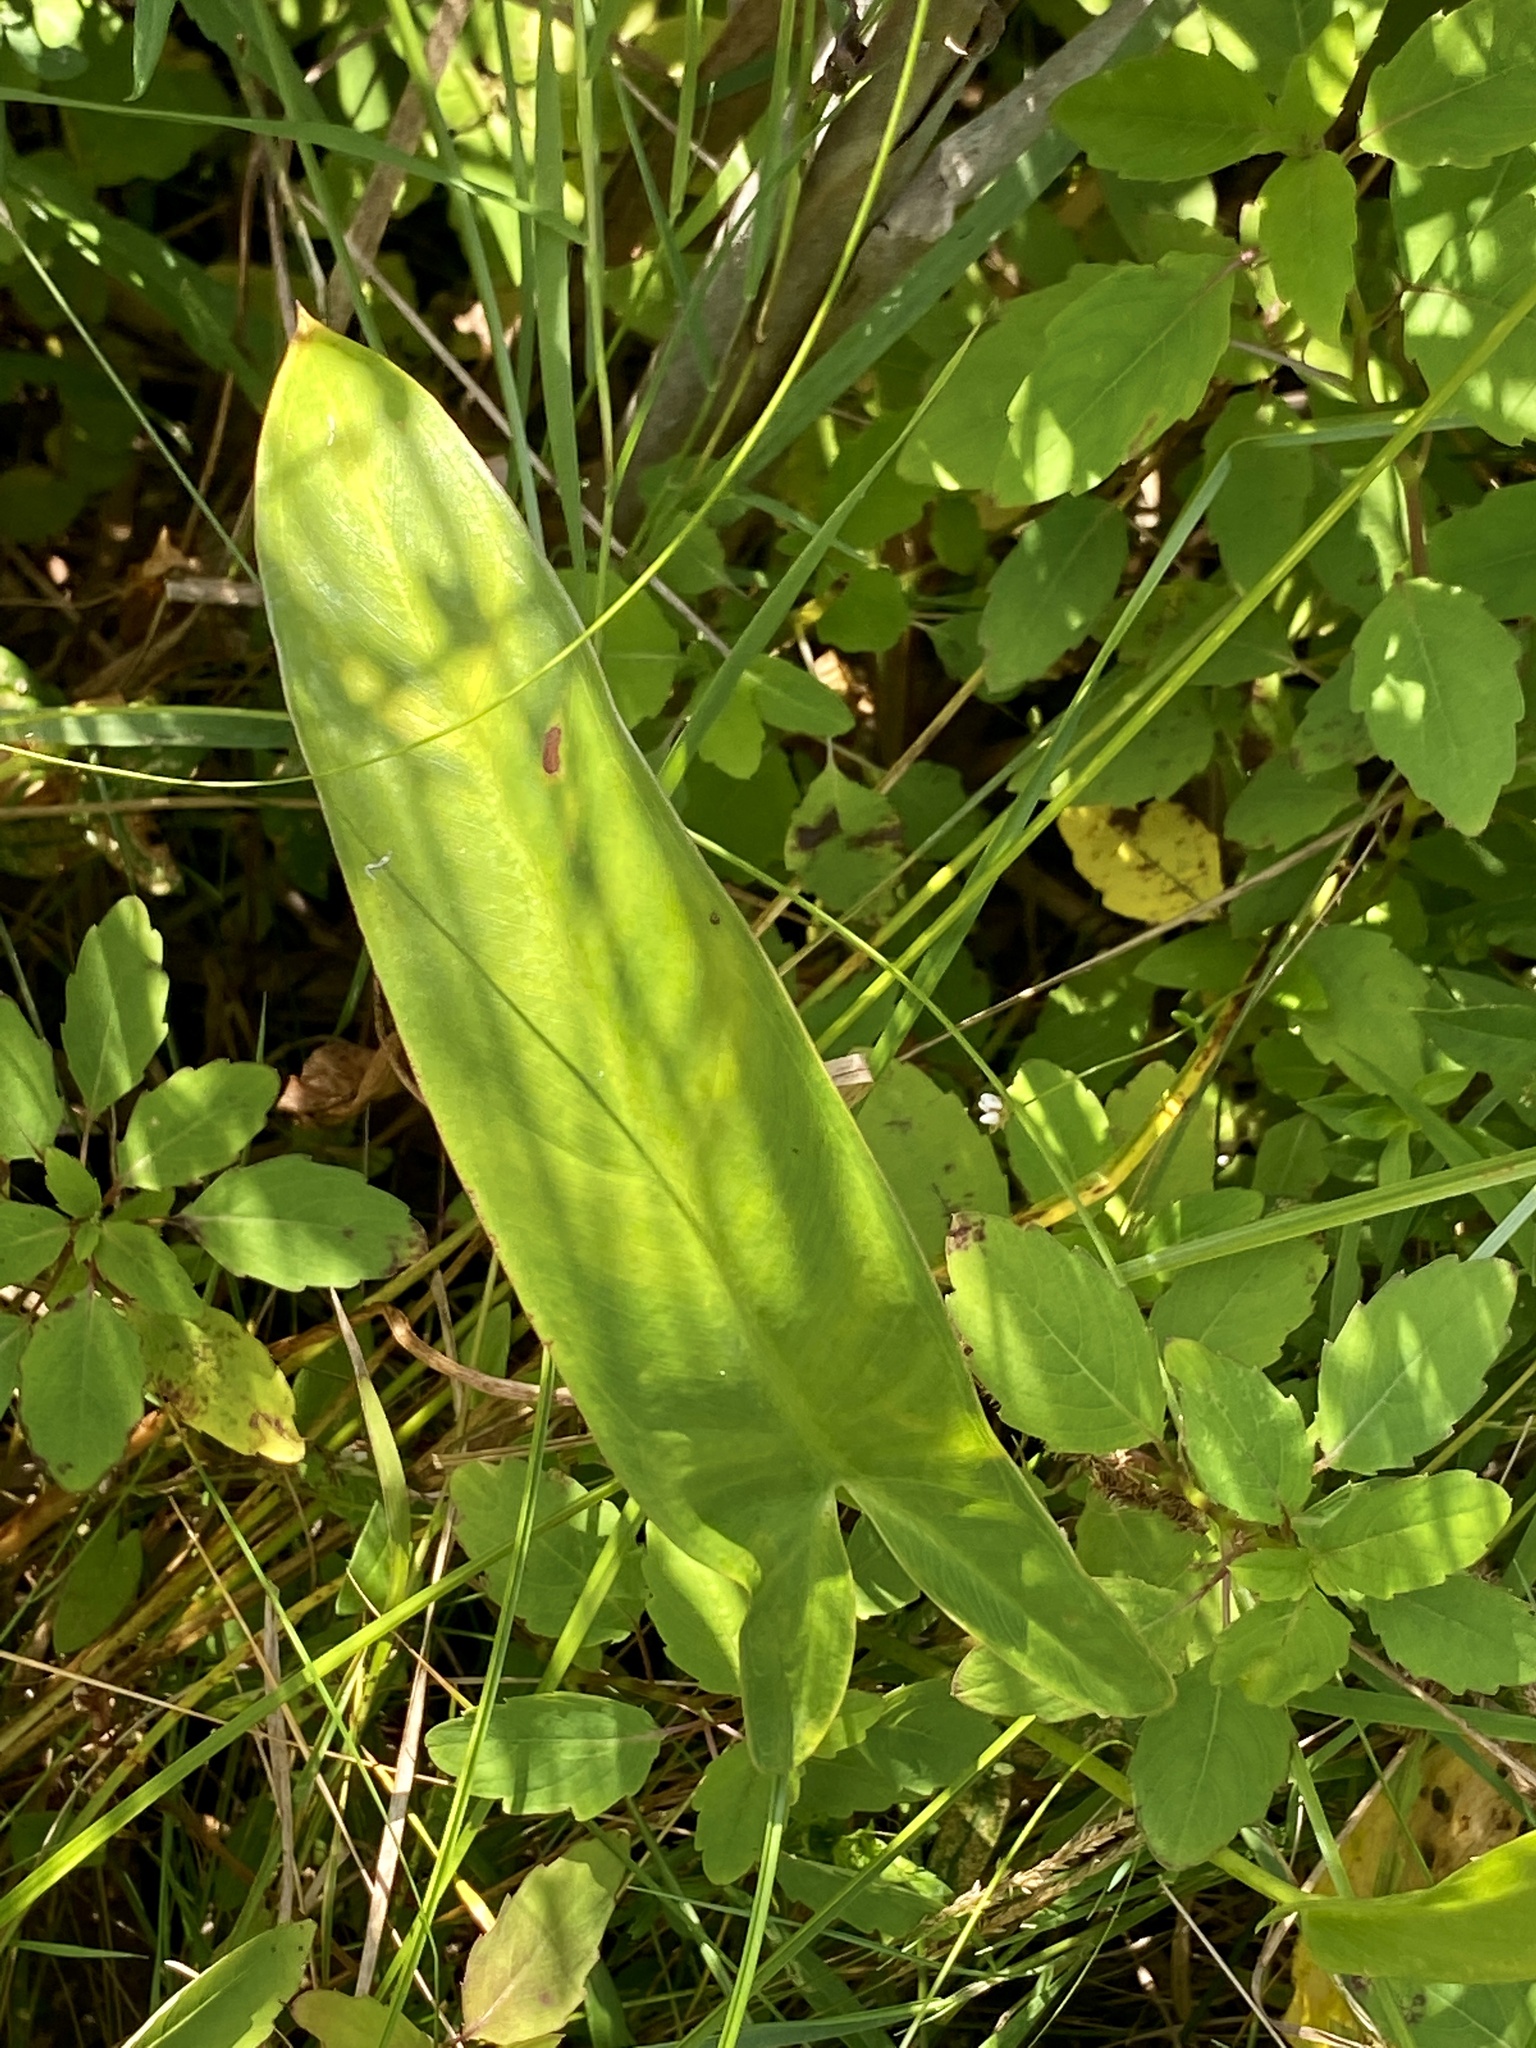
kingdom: Plantae
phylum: Tracheophyta
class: Liliopsida
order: Alismatales
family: Araceae
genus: Peltandra
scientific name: Peltandra virginica
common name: Arrow arum
